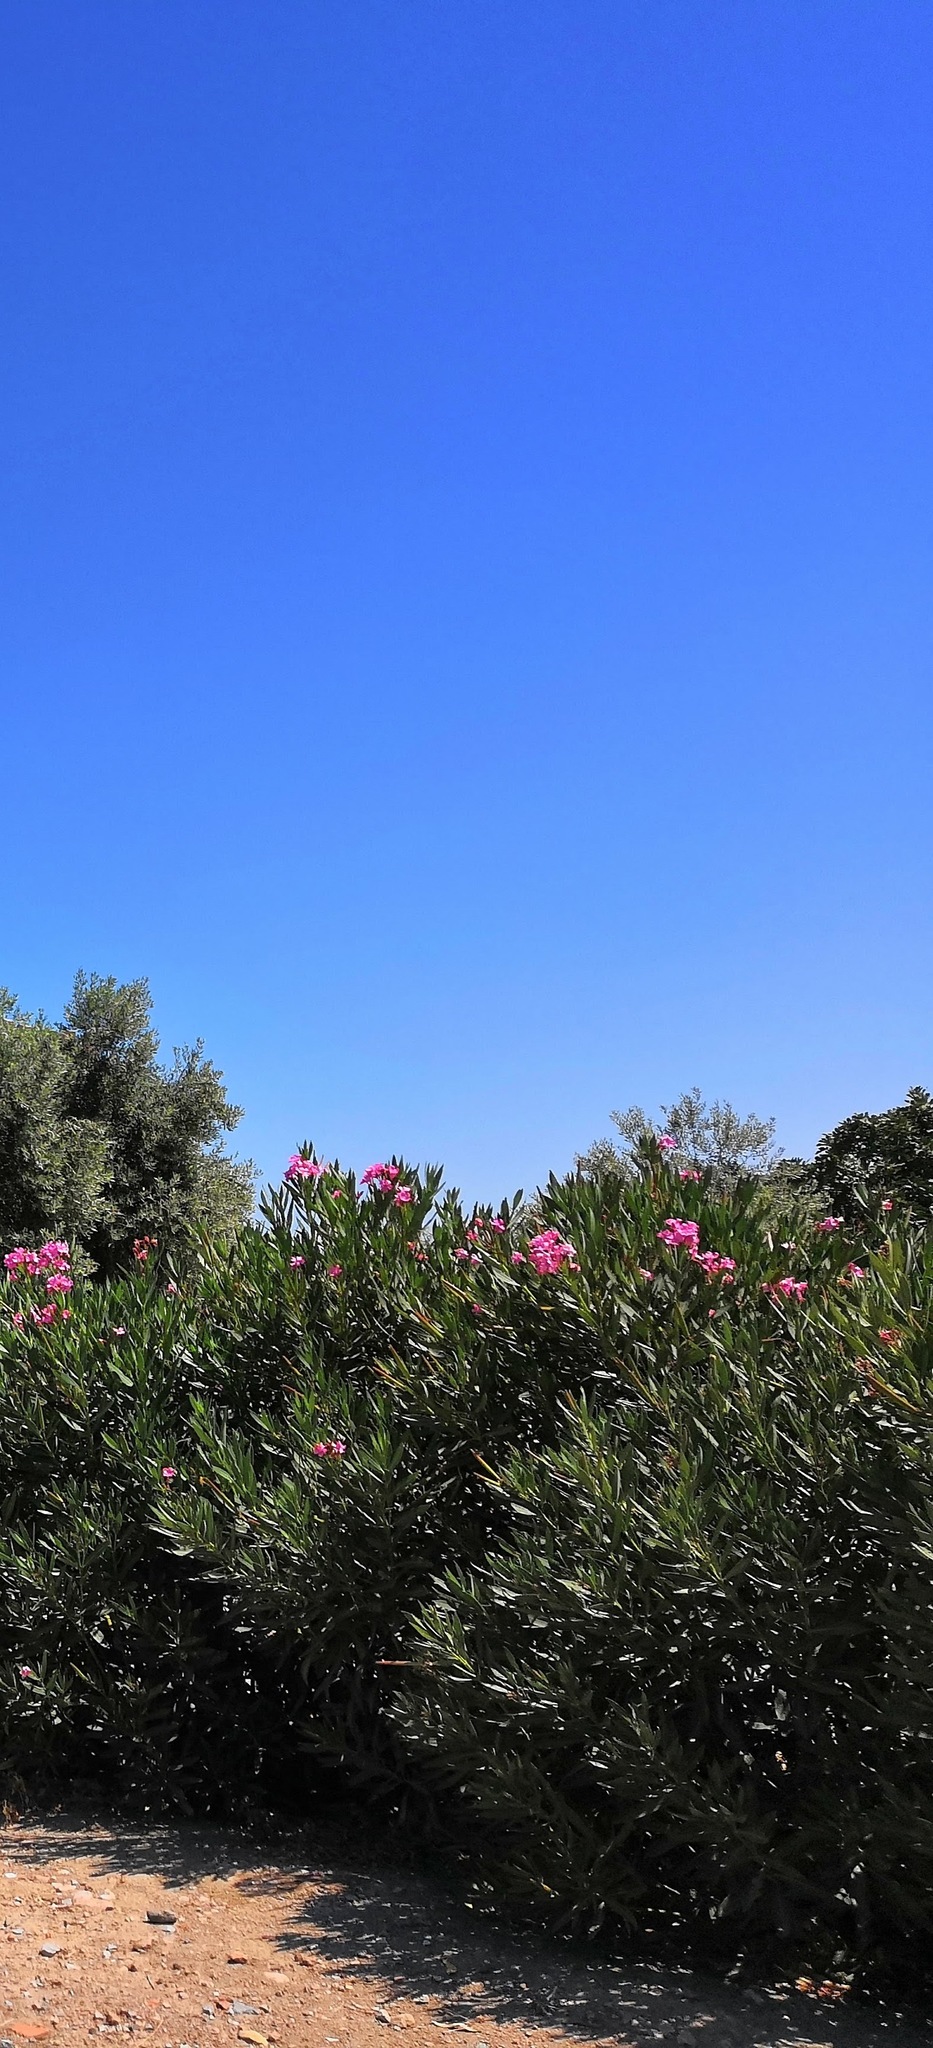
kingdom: Plantae
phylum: Tracheophyta
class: Magnoliopsida
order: Gentianales
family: Apocynaceae
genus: Nerium
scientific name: Nerium oleander
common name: Oleander
